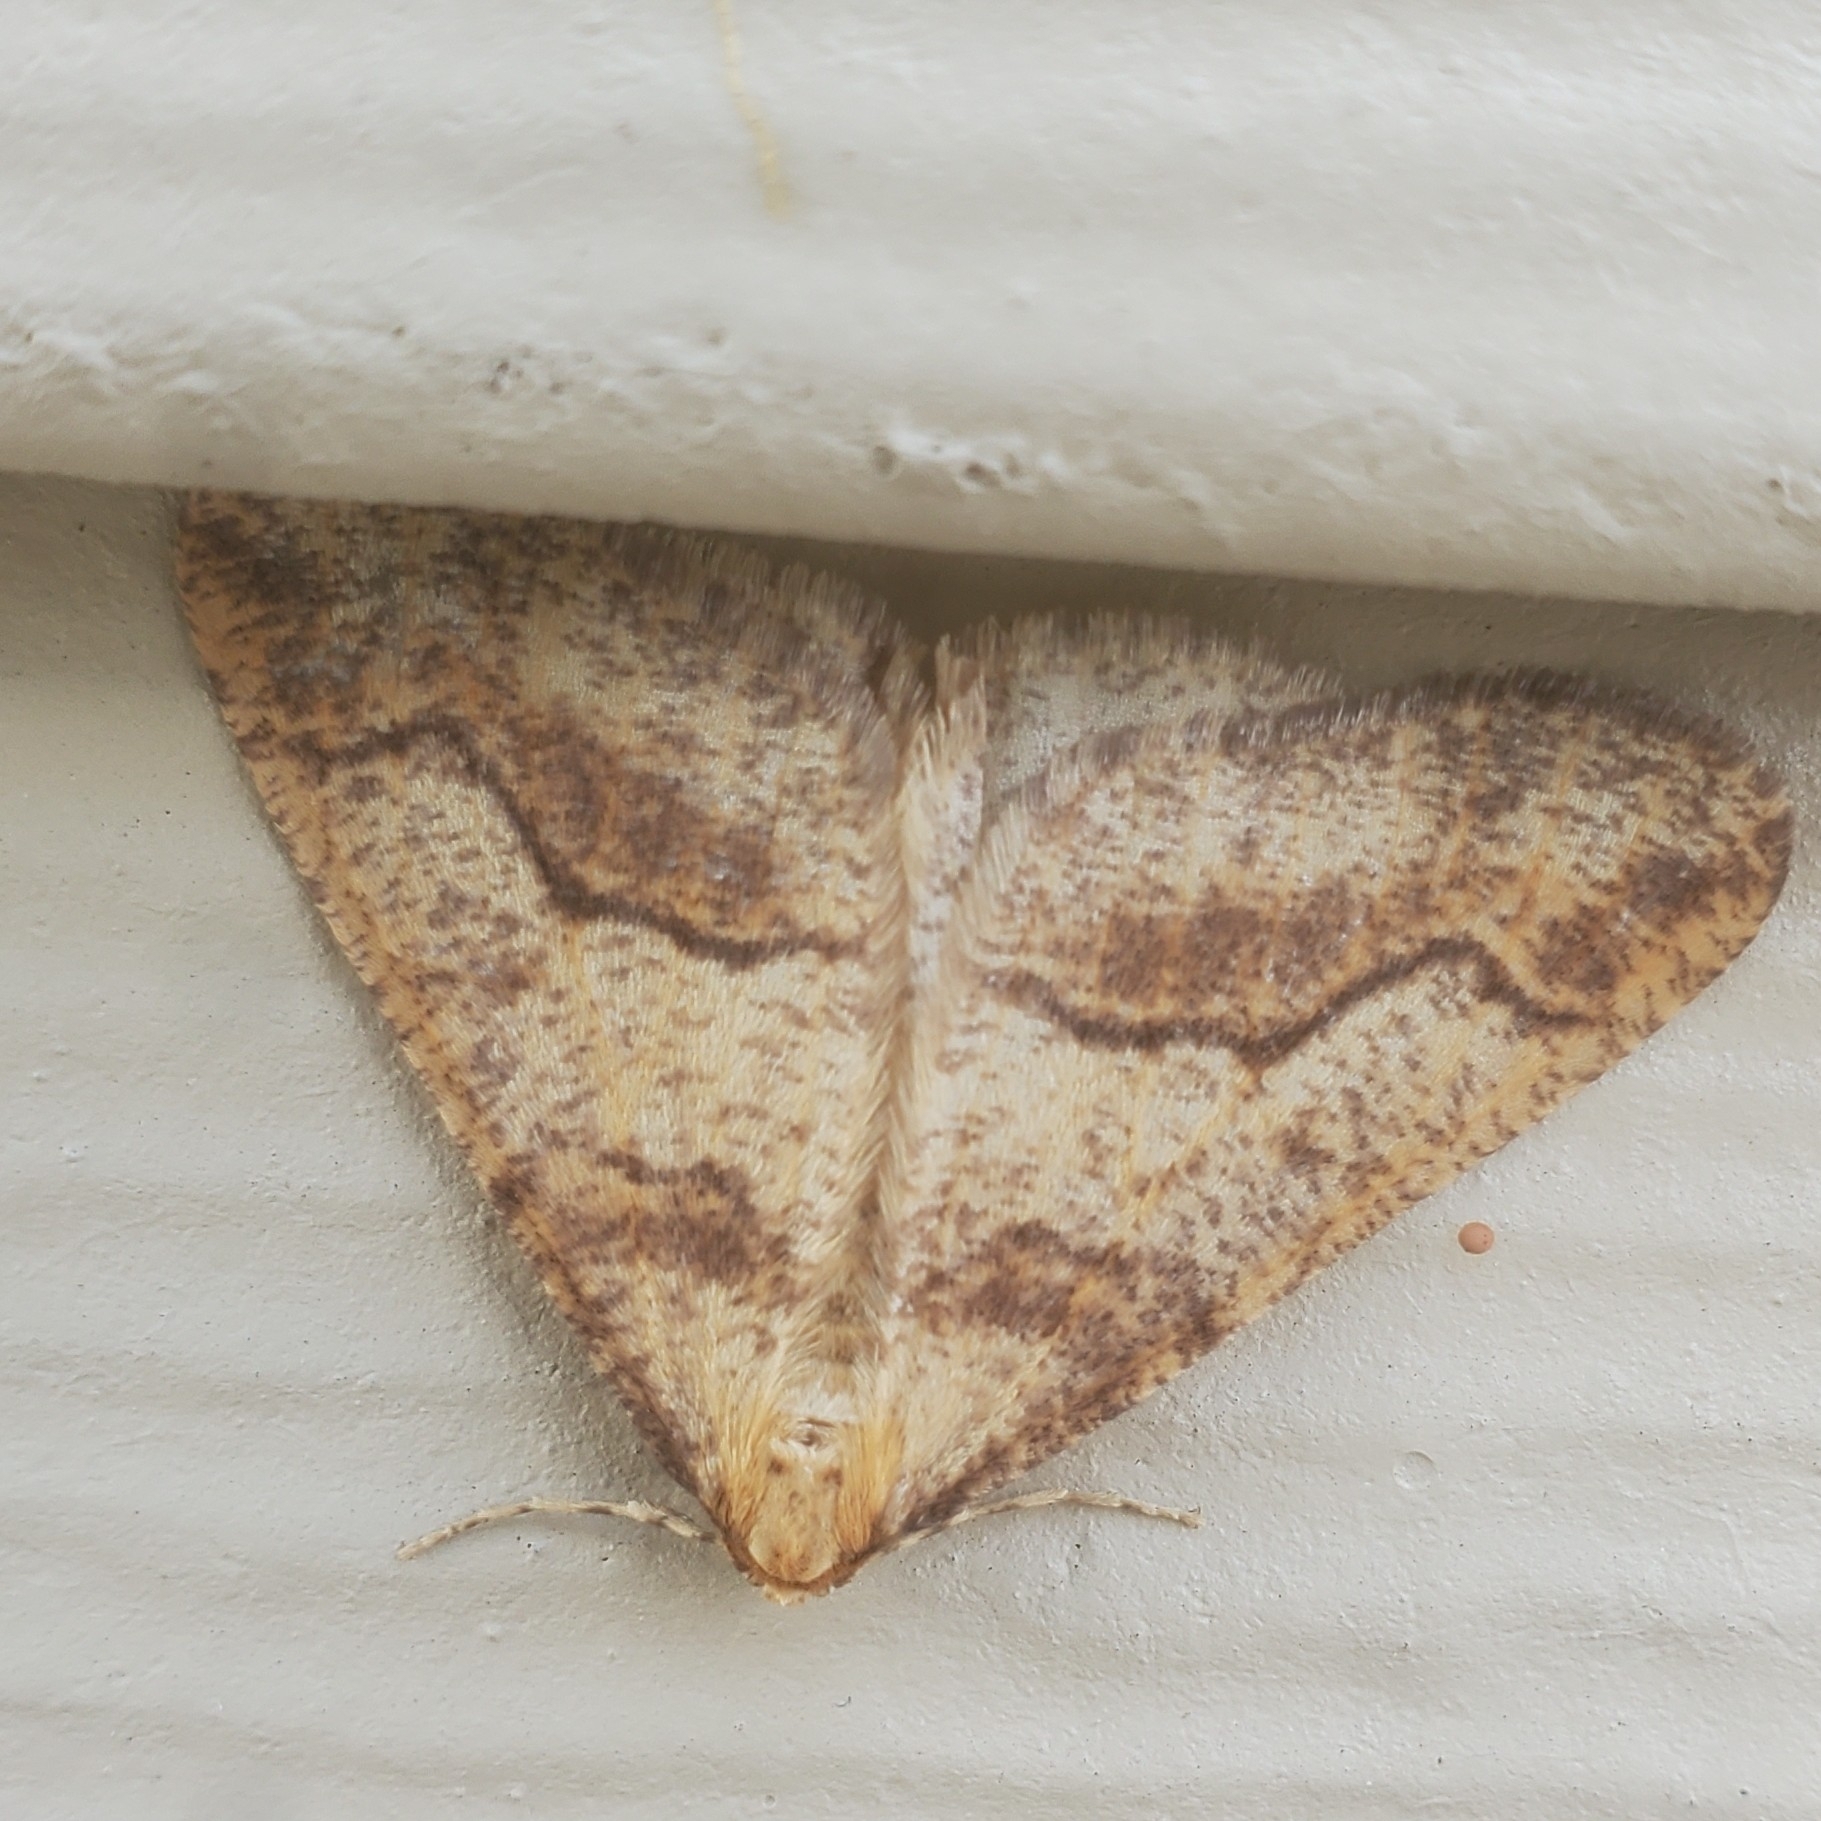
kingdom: Animalia
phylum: Arthropoda
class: Insecta
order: Lepidoptera
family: Geometridae
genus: Erannis
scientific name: Erannis tiliaria
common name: Linden looper
